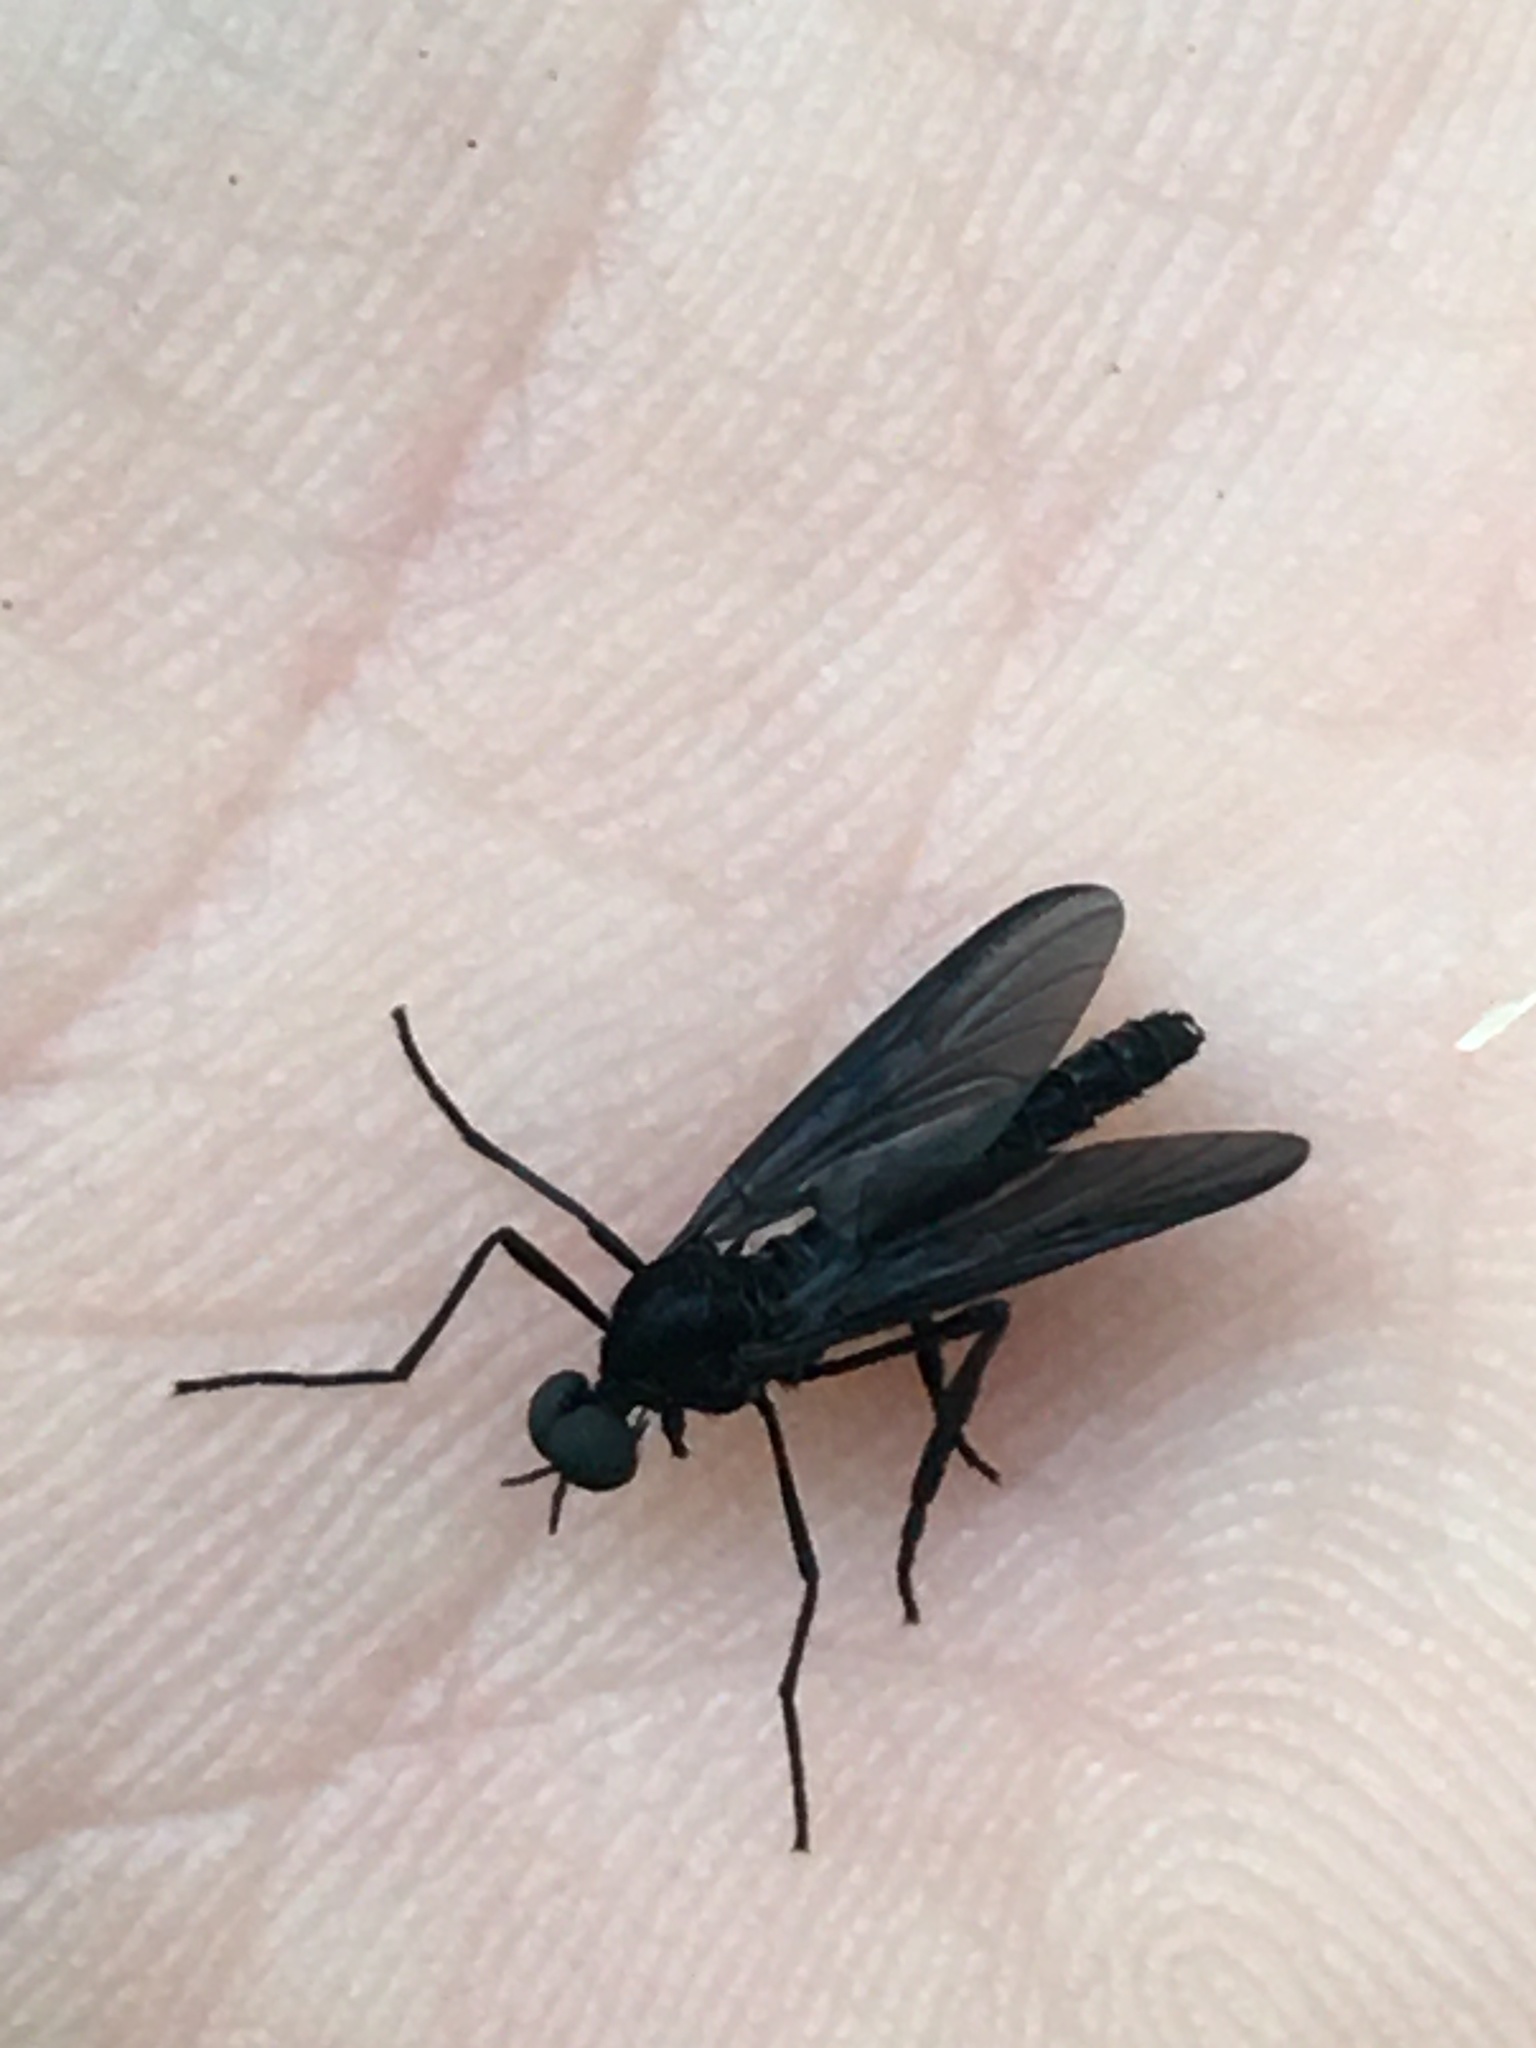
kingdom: Animalia
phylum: Arthropoda
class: Insecta
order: Diptera
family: Bibionidae
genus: Penthetria
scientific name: Penthetria heteroptera
